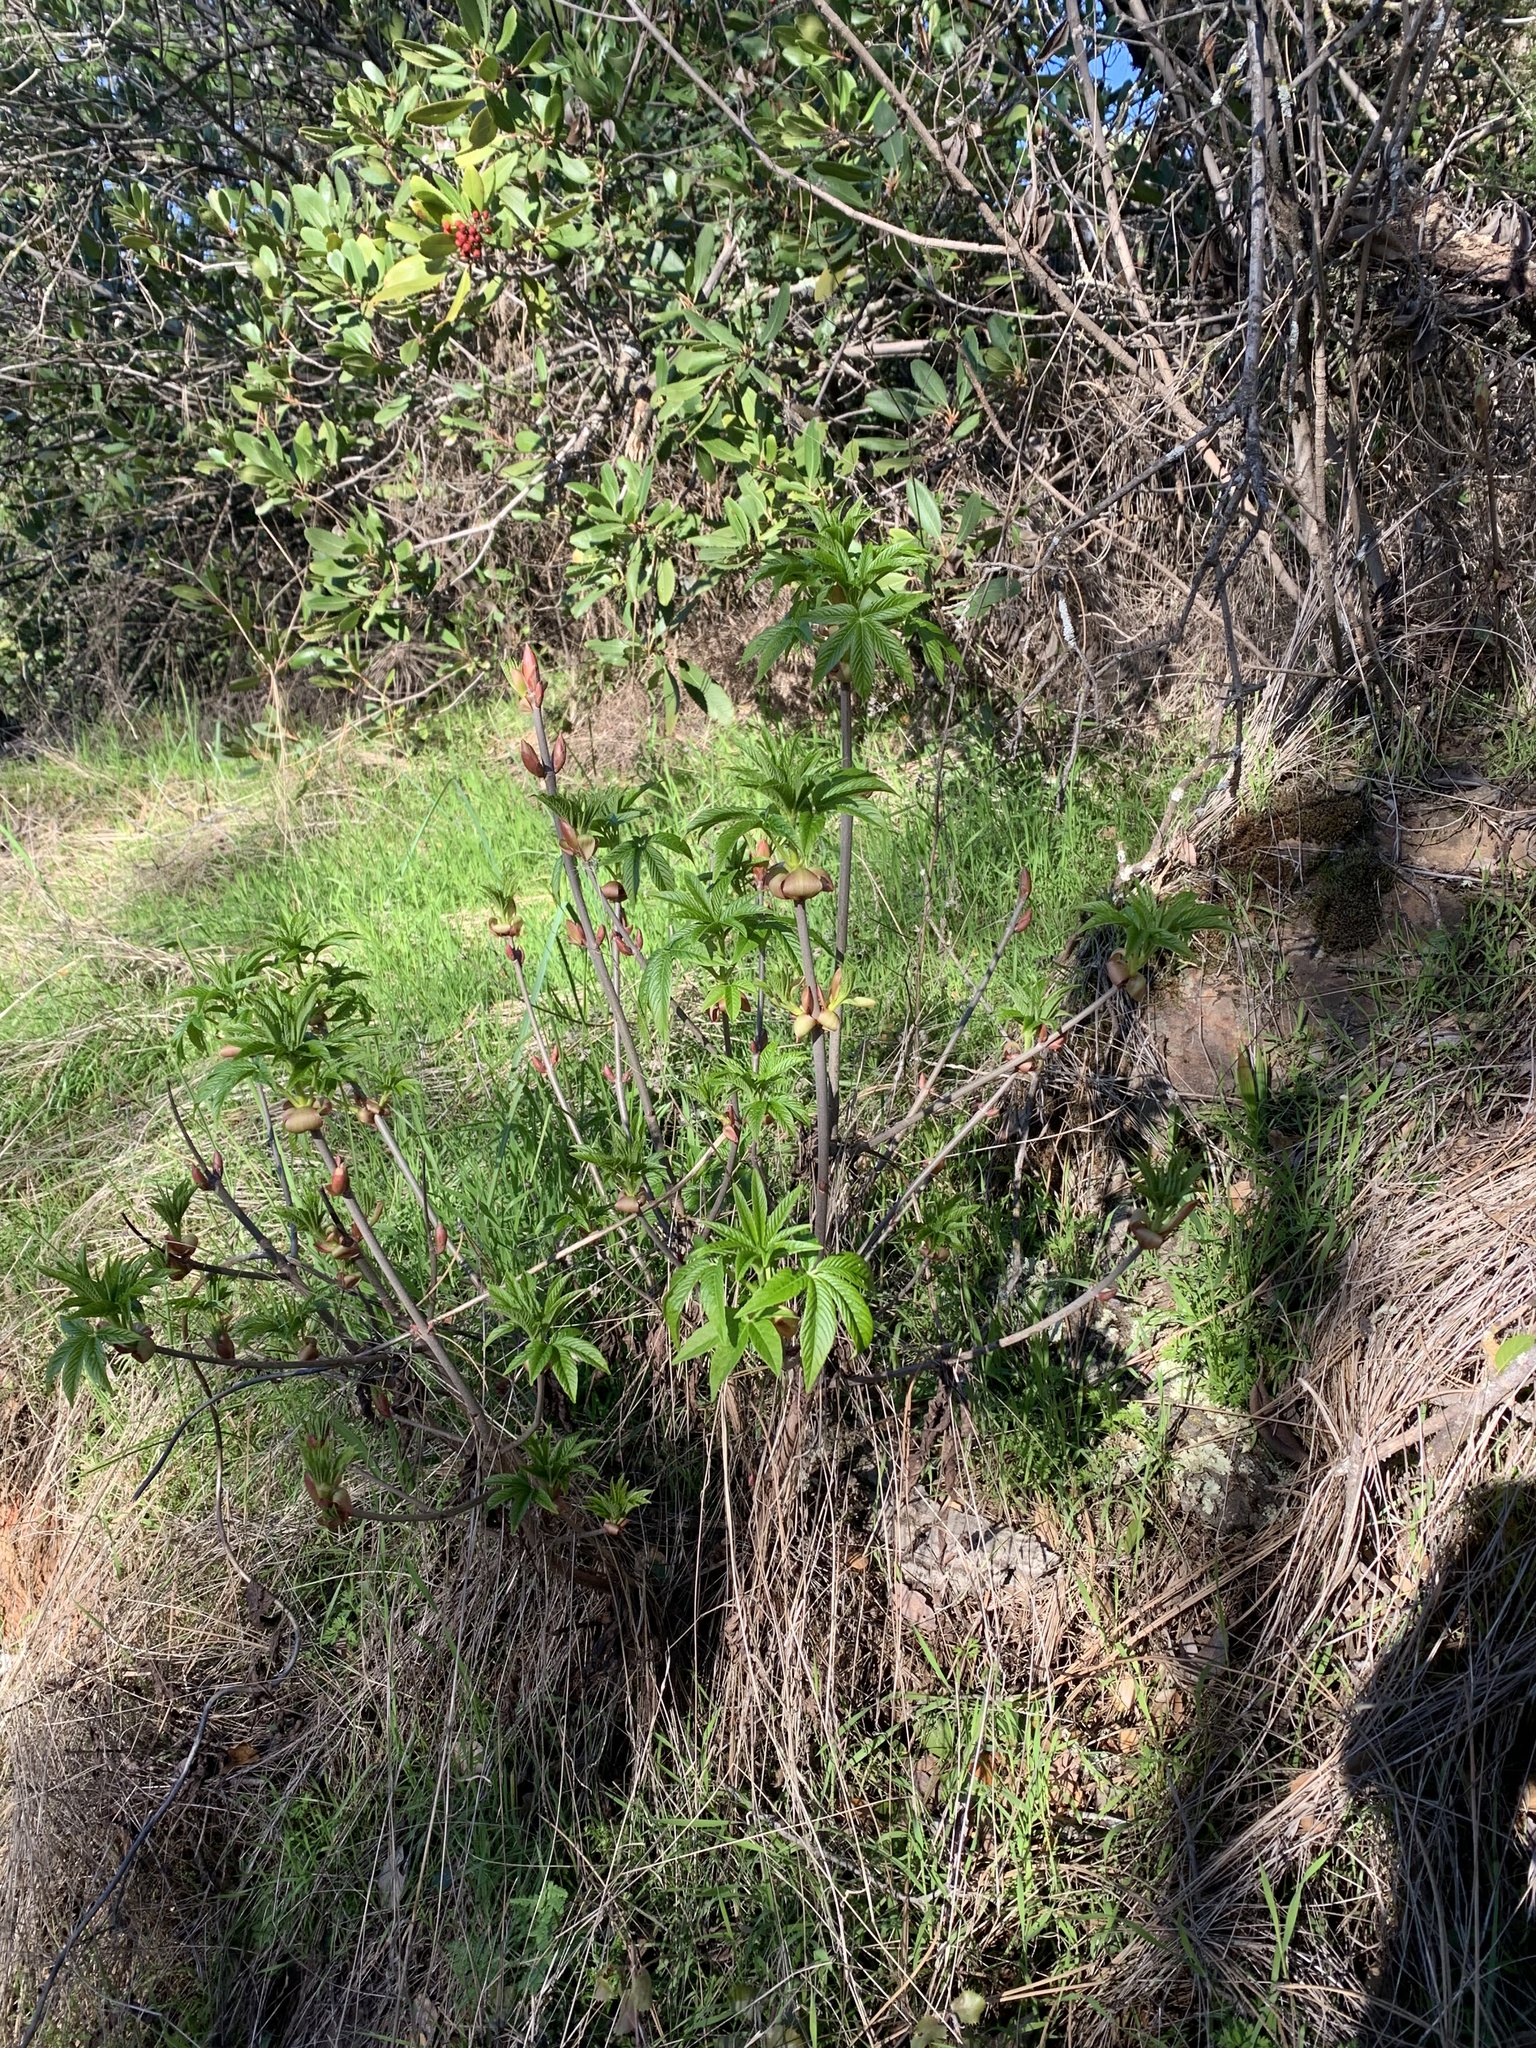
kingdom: Plantae
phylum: Tracheophyta
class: Magnoliopsida
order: Sapindales
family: Sapindaceae
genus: Aesculus
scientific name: Aesculus californica
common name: California buckeye
